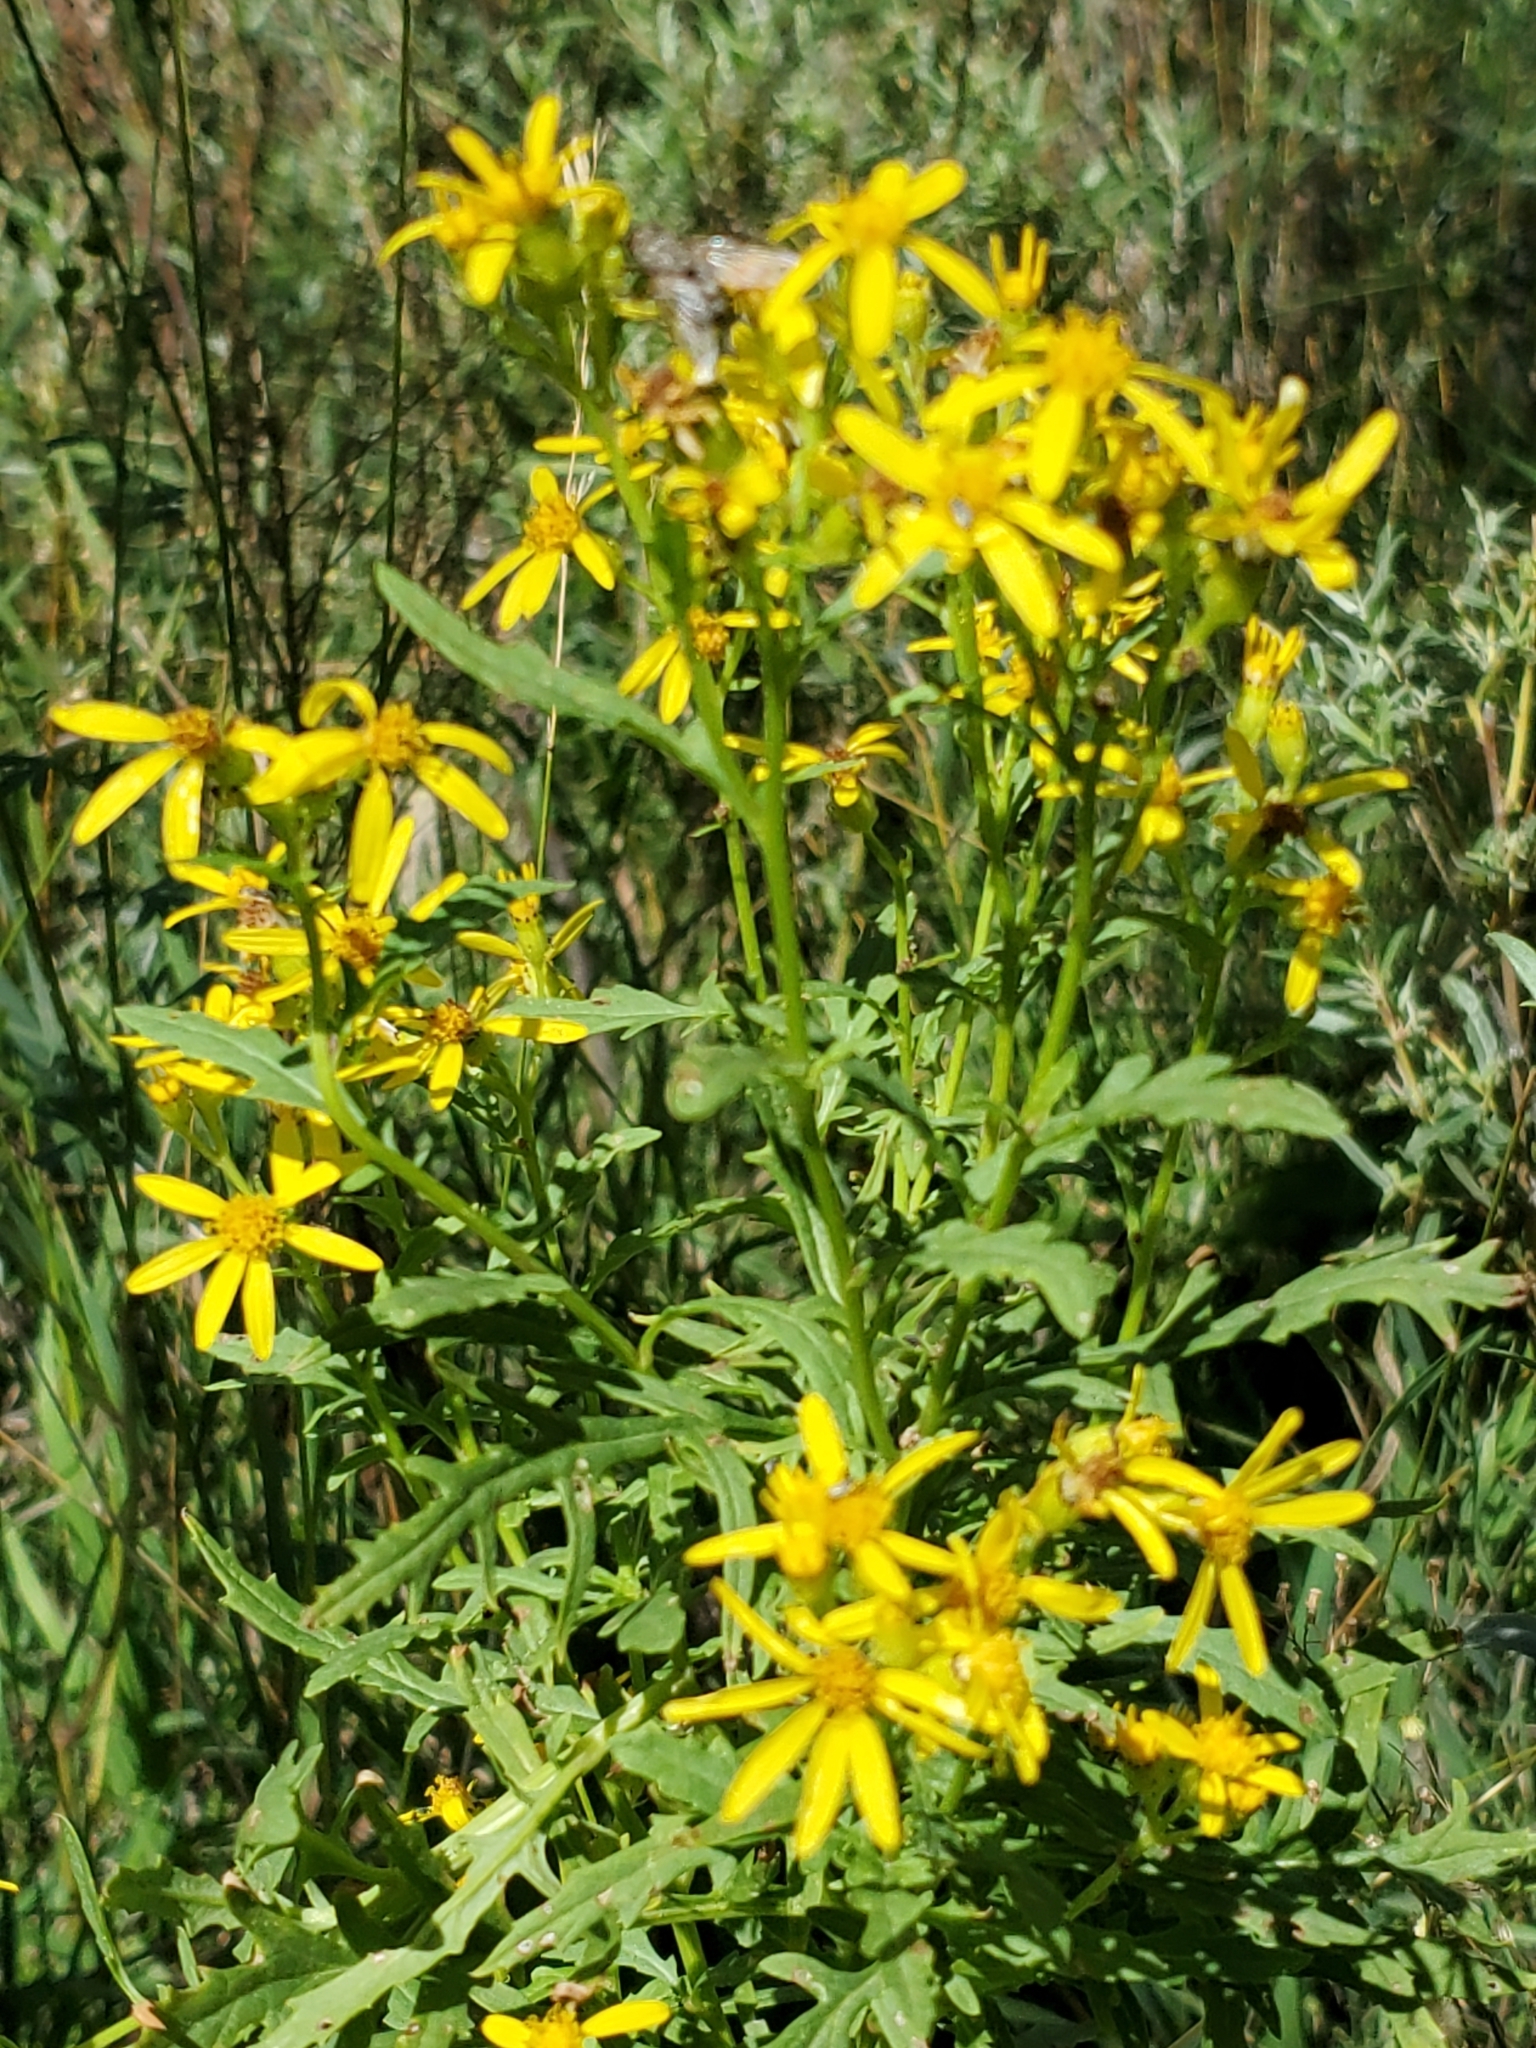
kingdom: Plantae
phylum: Tracheophyta
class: Magnoliopsida
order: Asterales
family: Asteraceae
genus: Senecio
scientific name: Senecio eremophilus
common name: Desert ragwort
